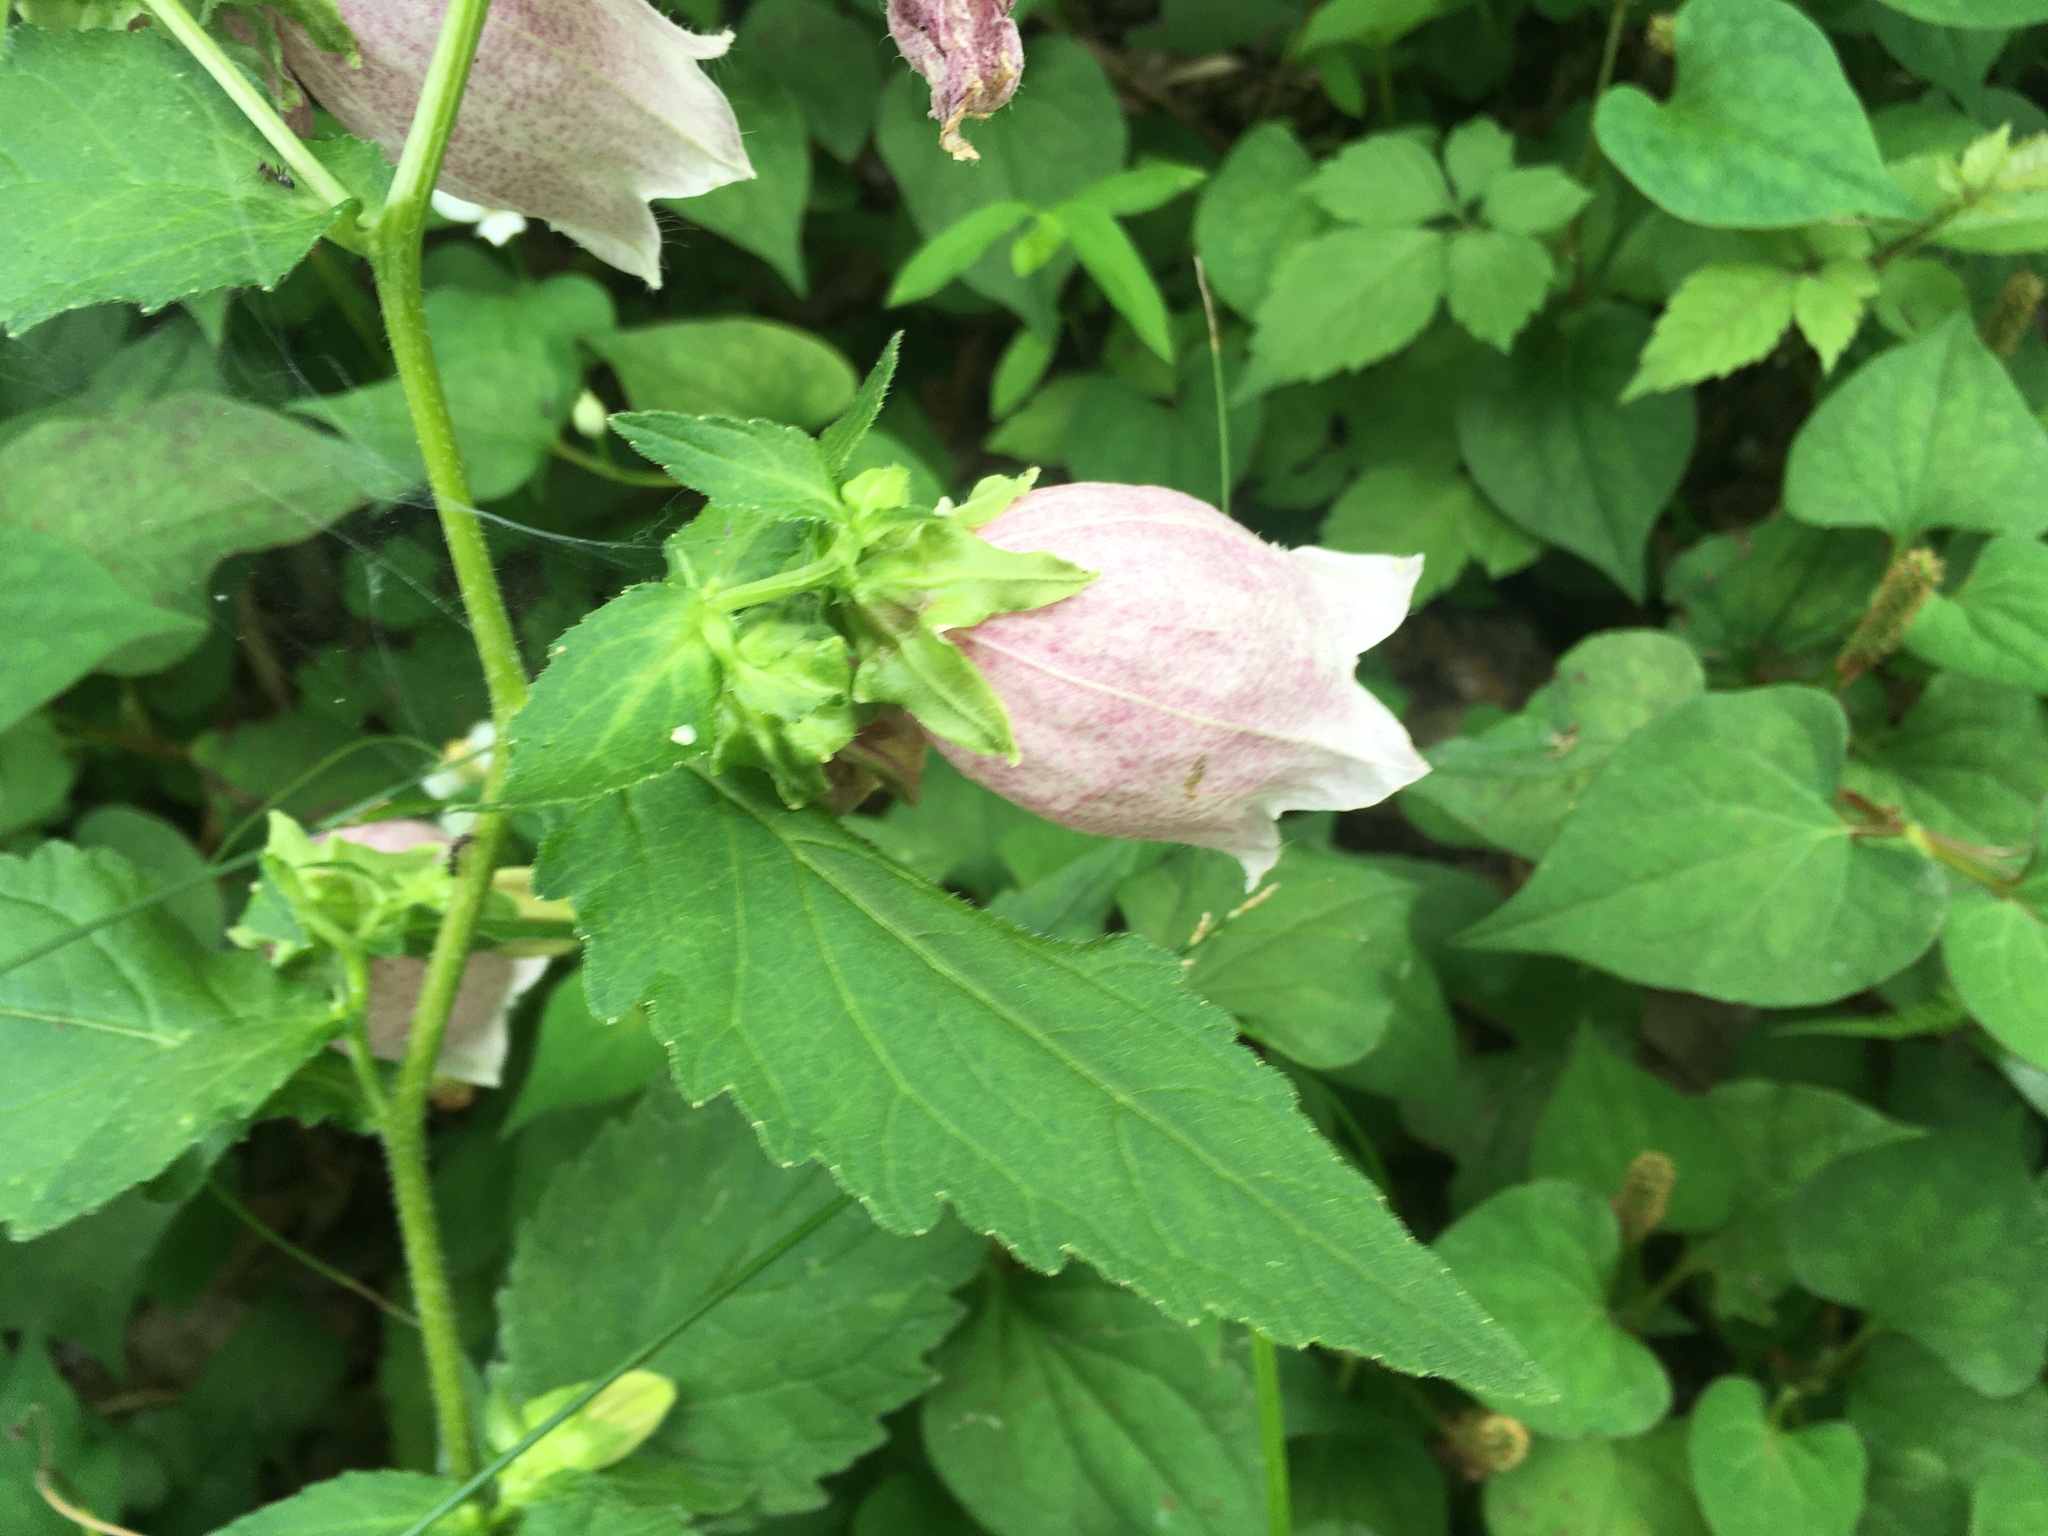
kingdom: Plantae
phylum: Tracheophyta
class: Magnoliopsida
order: Asterales
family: Campanulaceae
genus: Campanula
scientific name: Campanula punctata
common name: Spotted bellflower
